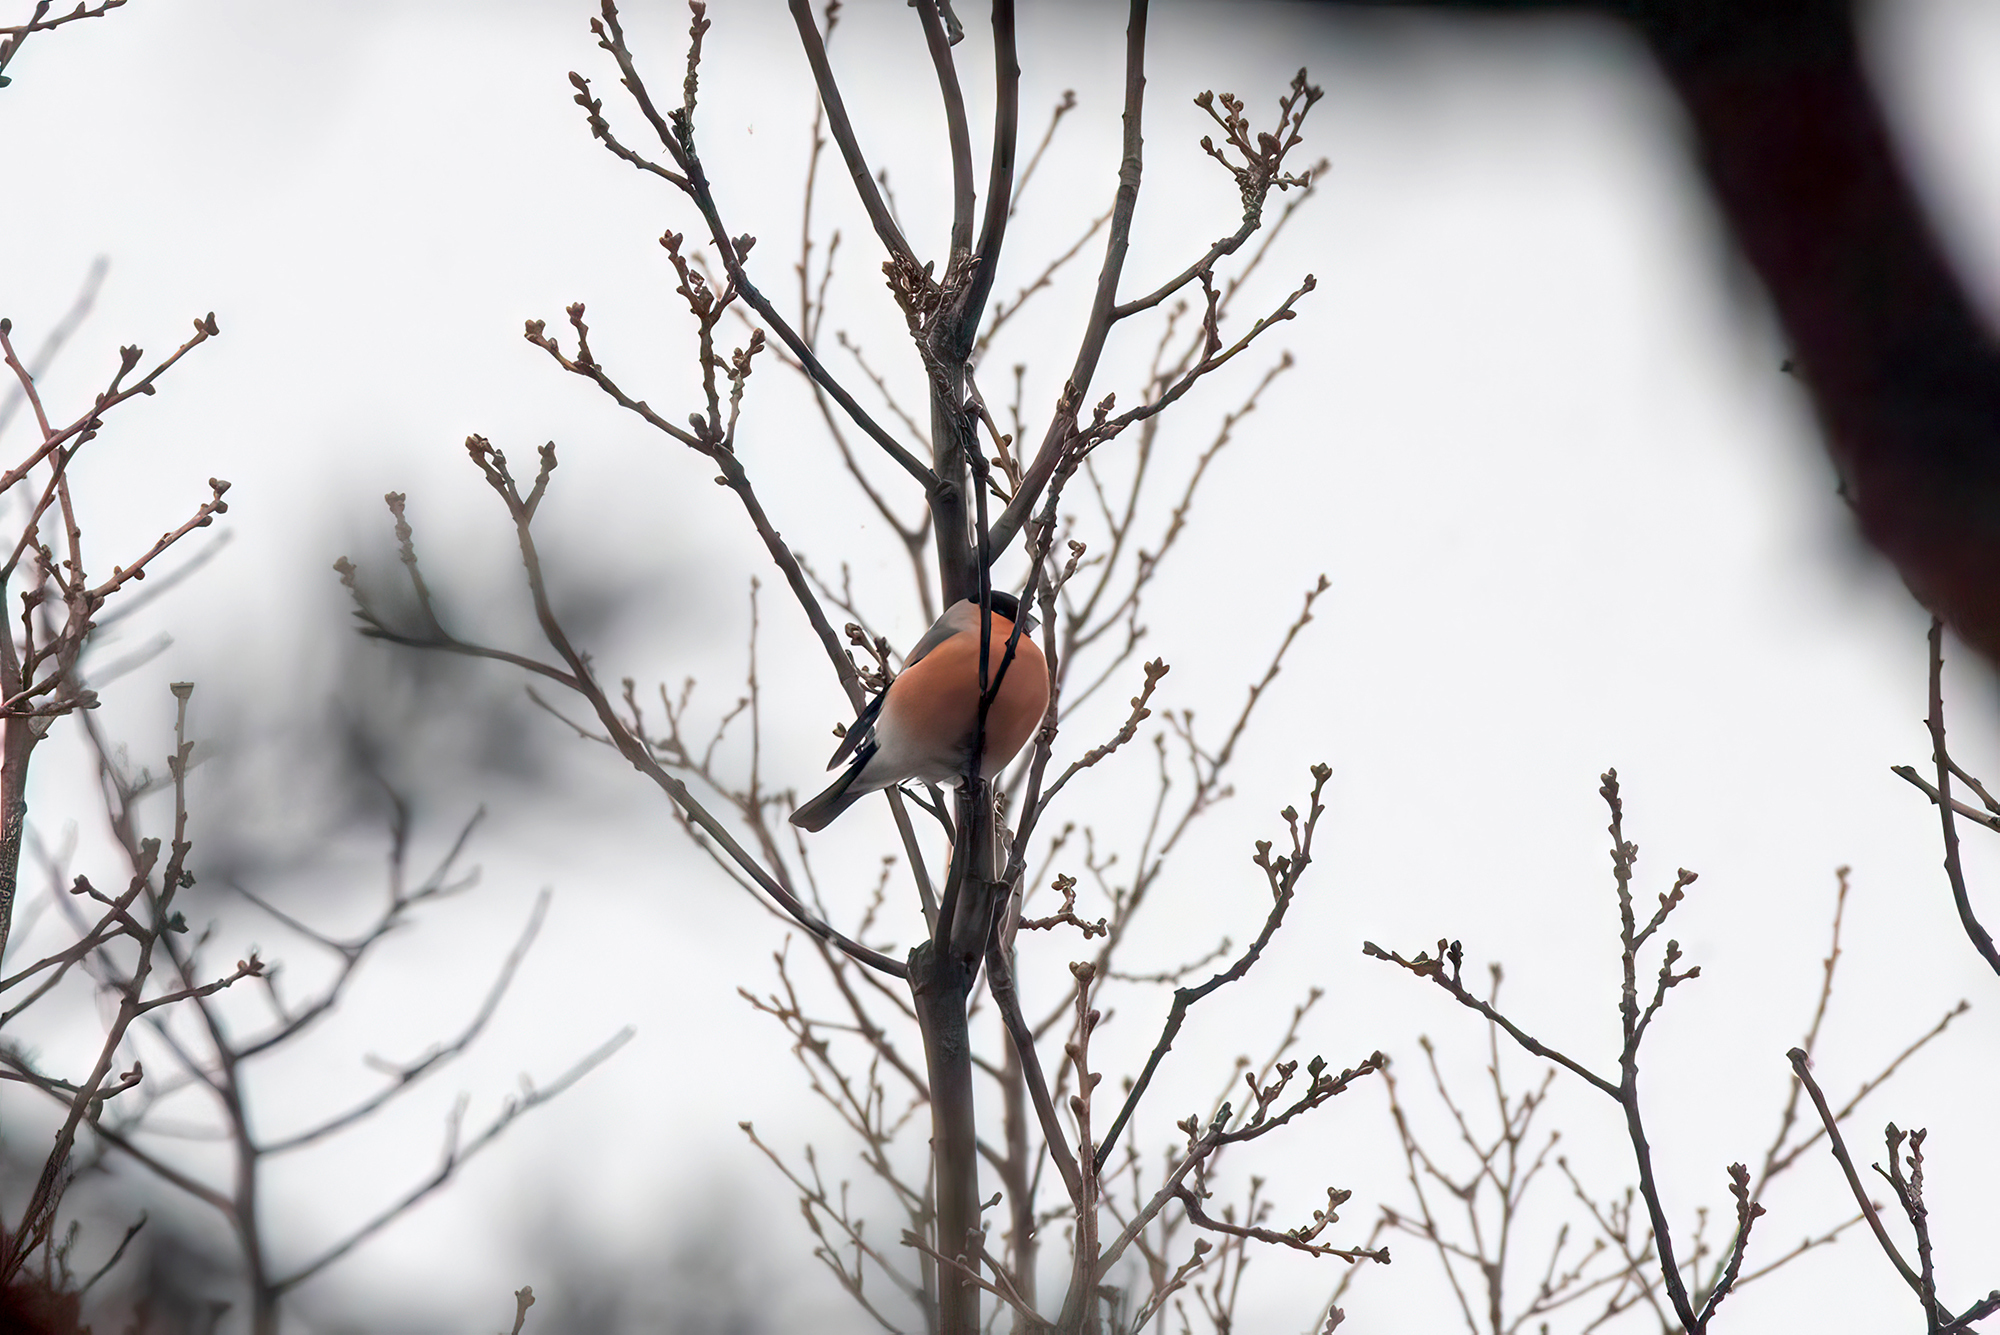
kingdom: Animalia
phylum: Chordata
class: Aves
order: Passeriformes
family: Fringillidae
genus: Pyrrhula
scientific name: Pyrrhula pyrrhula
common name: Eurasian bullfinch
